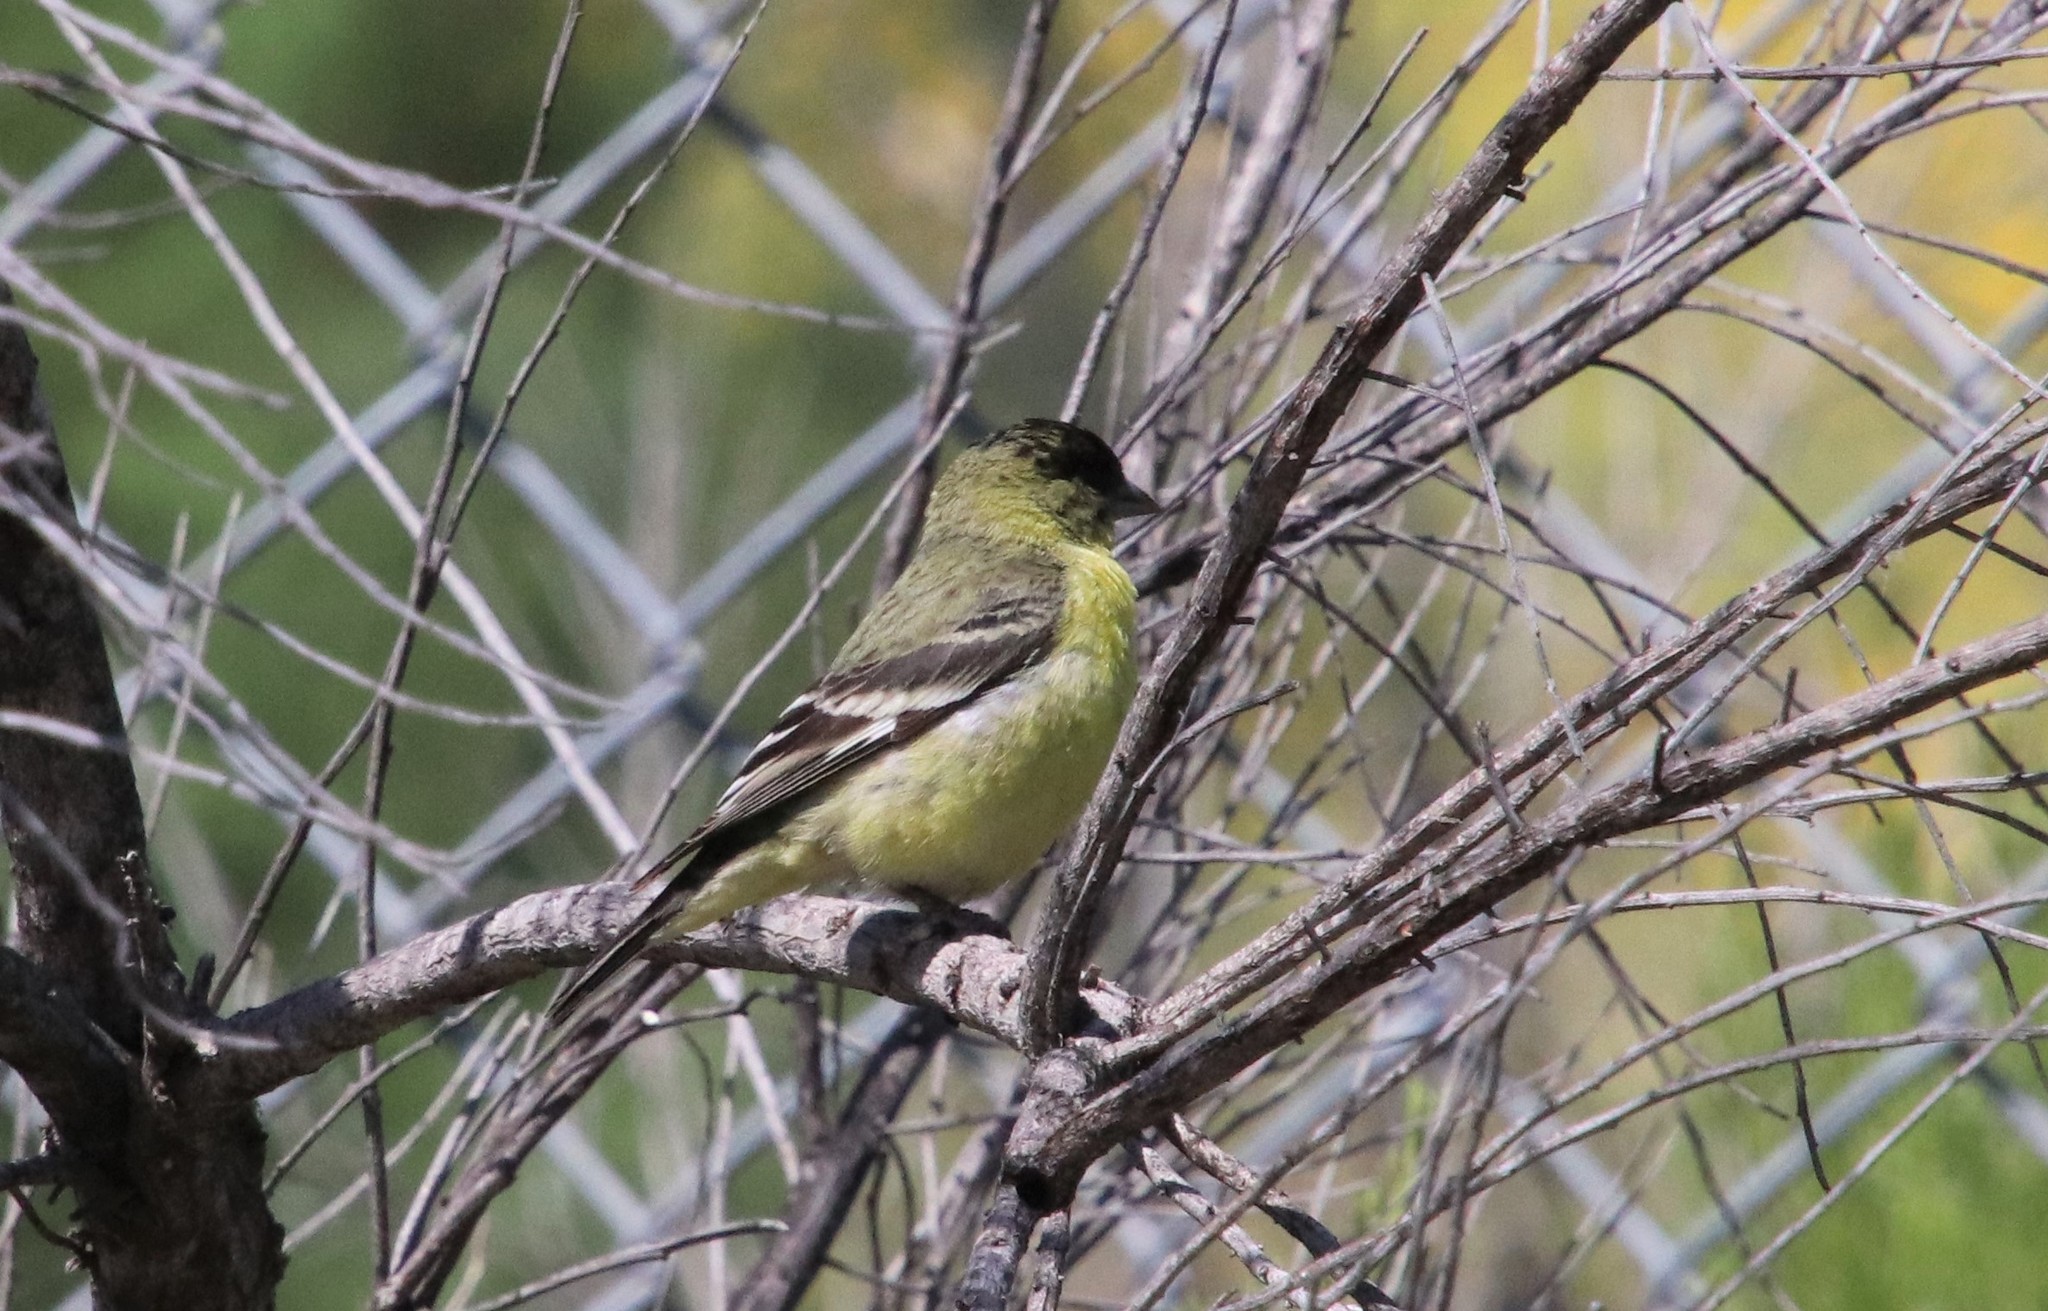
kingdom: Animalia
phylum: Chordata
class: Aves
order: Passeriformes
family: Fringillidae
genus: Spinus
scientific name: Spinus psaltria
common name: Lesser goldfinch
